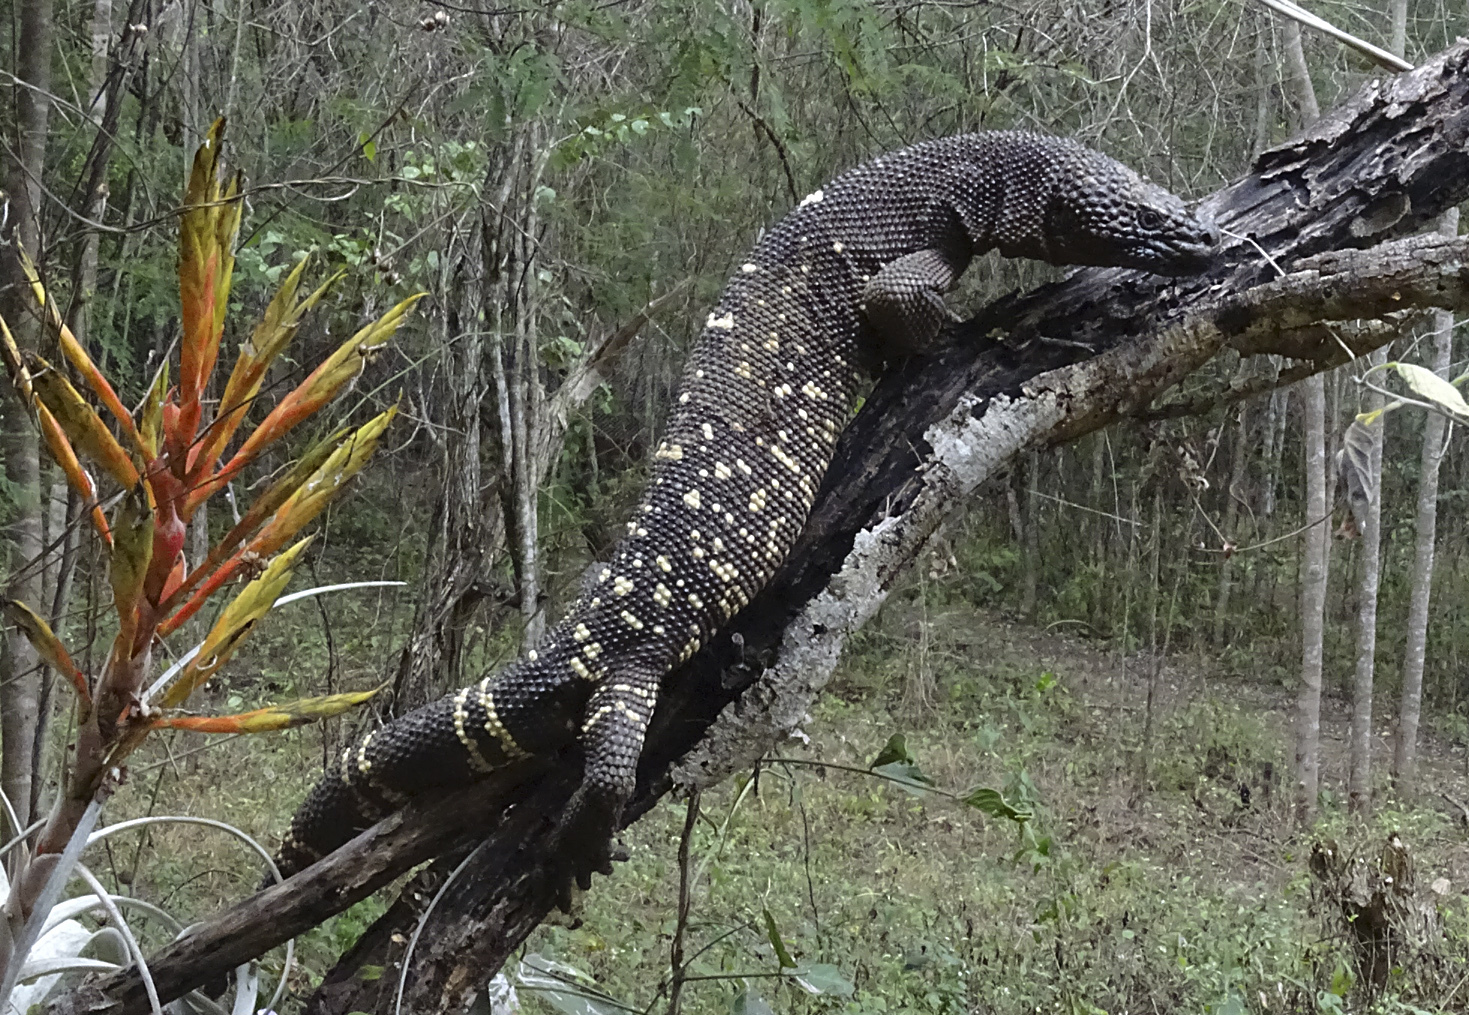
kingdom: Animalia
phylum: Chordata
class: Squamata
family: Helodermatidae
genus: Heloderma
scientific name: Heloderma charlesbogerti
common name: Guatemala beaded lizard
